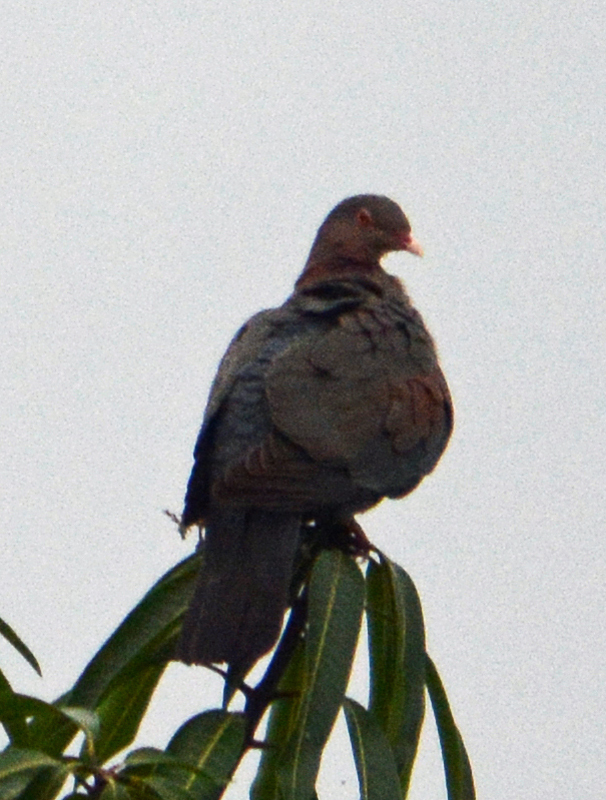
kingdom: Animalia
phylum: Chordata
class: Aves
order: Columbiformes
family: Columbidae
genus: Patagioenas
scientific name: Patagioenas flavirostris
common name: Red-billed pigeon
